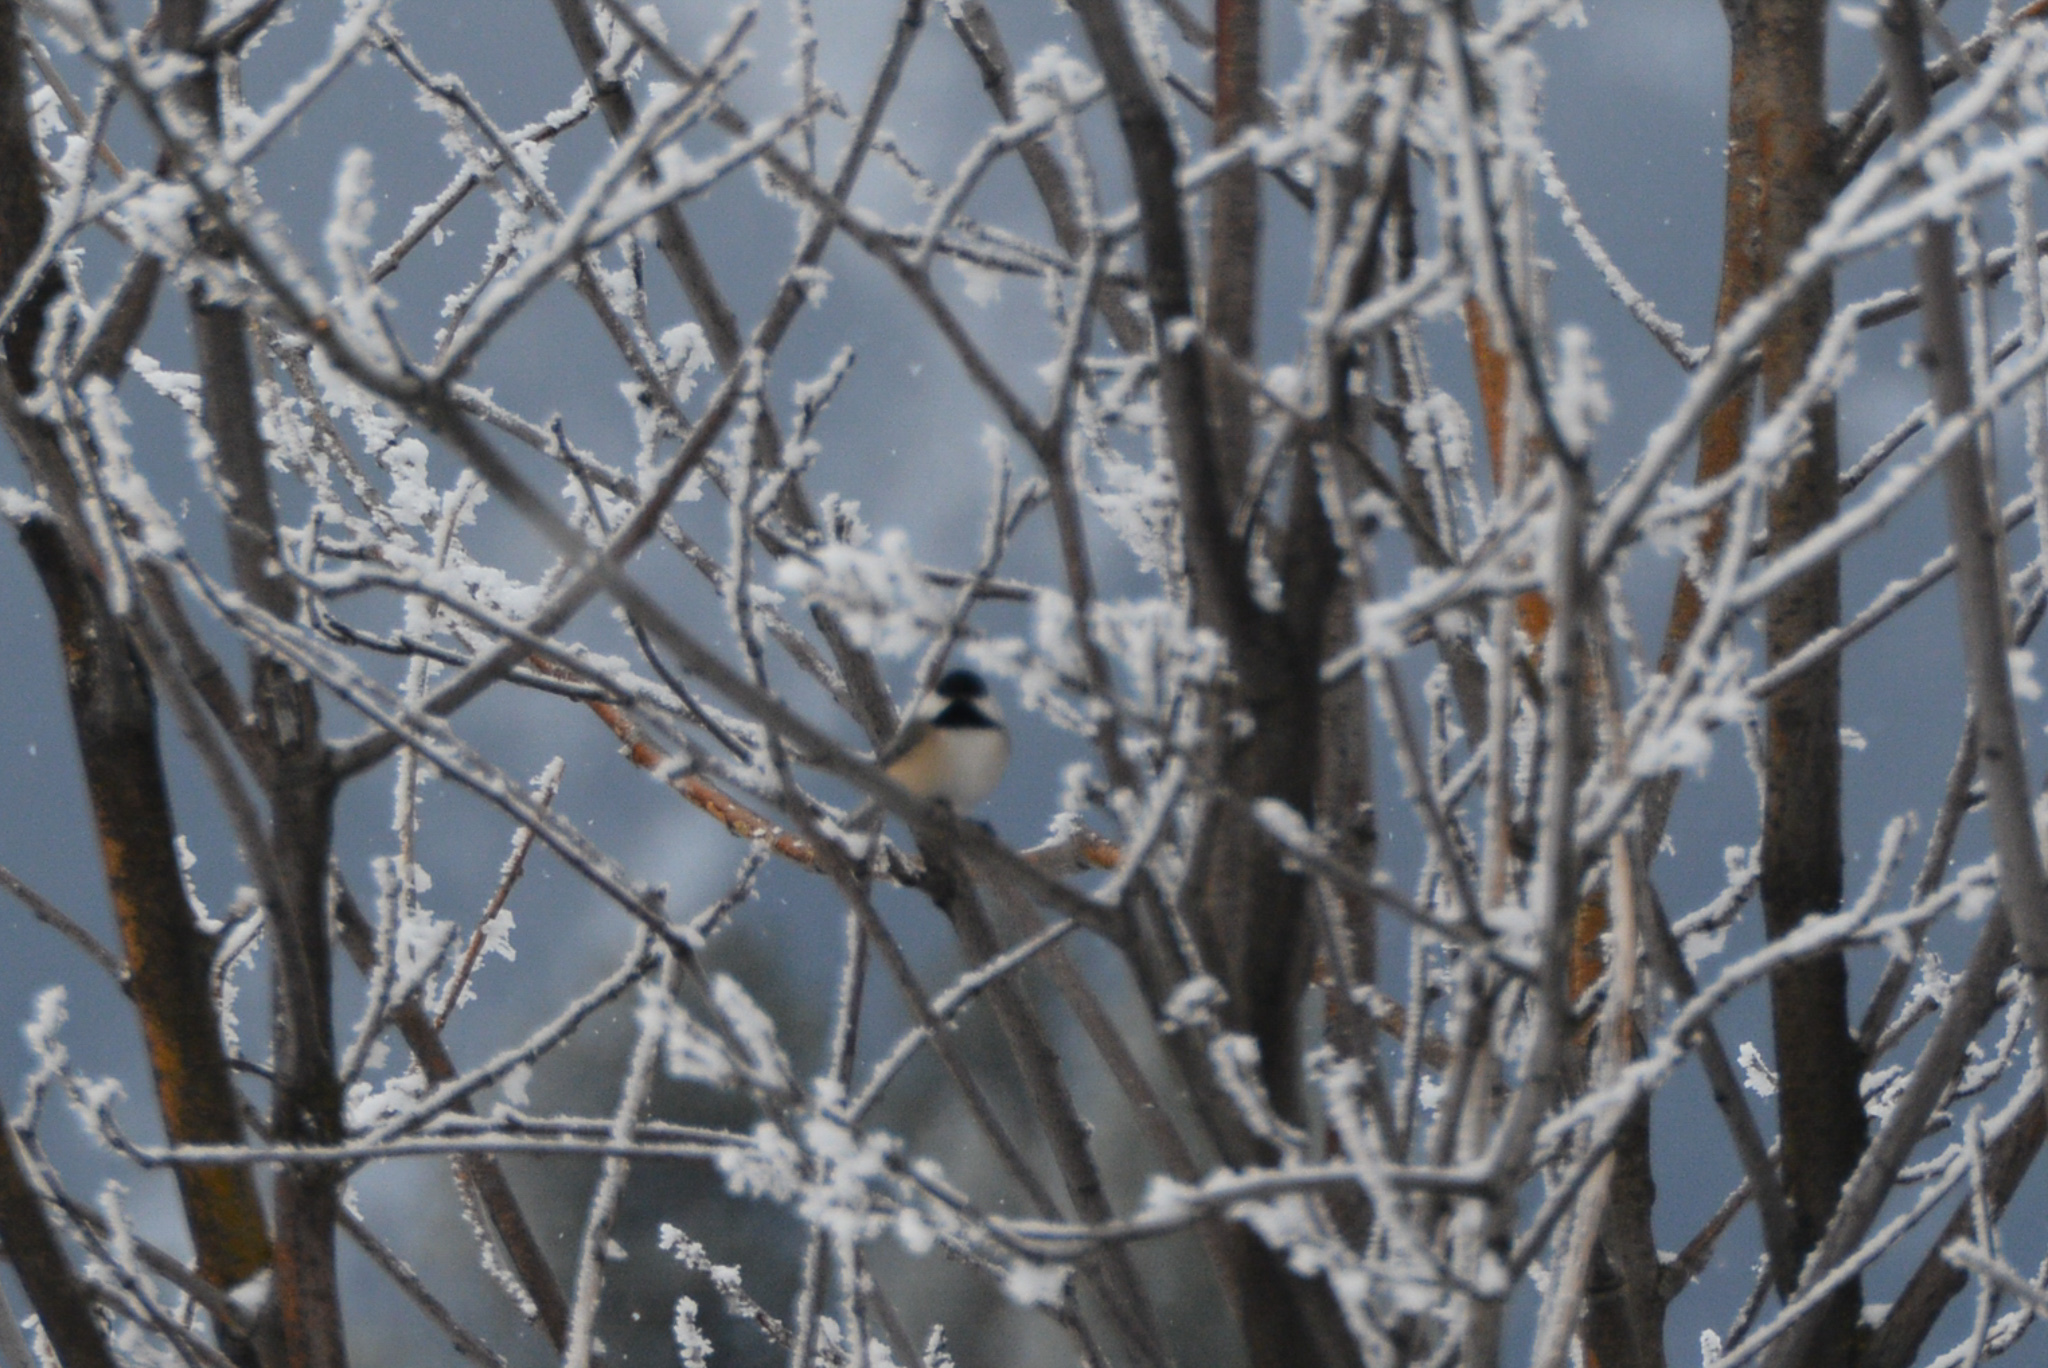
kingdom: Animalia
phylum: Chordata
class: Aves
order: Passeriformes
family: Paridae
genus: Poecile
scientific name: Poecile atricapillus
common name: Black-capped chickadee
